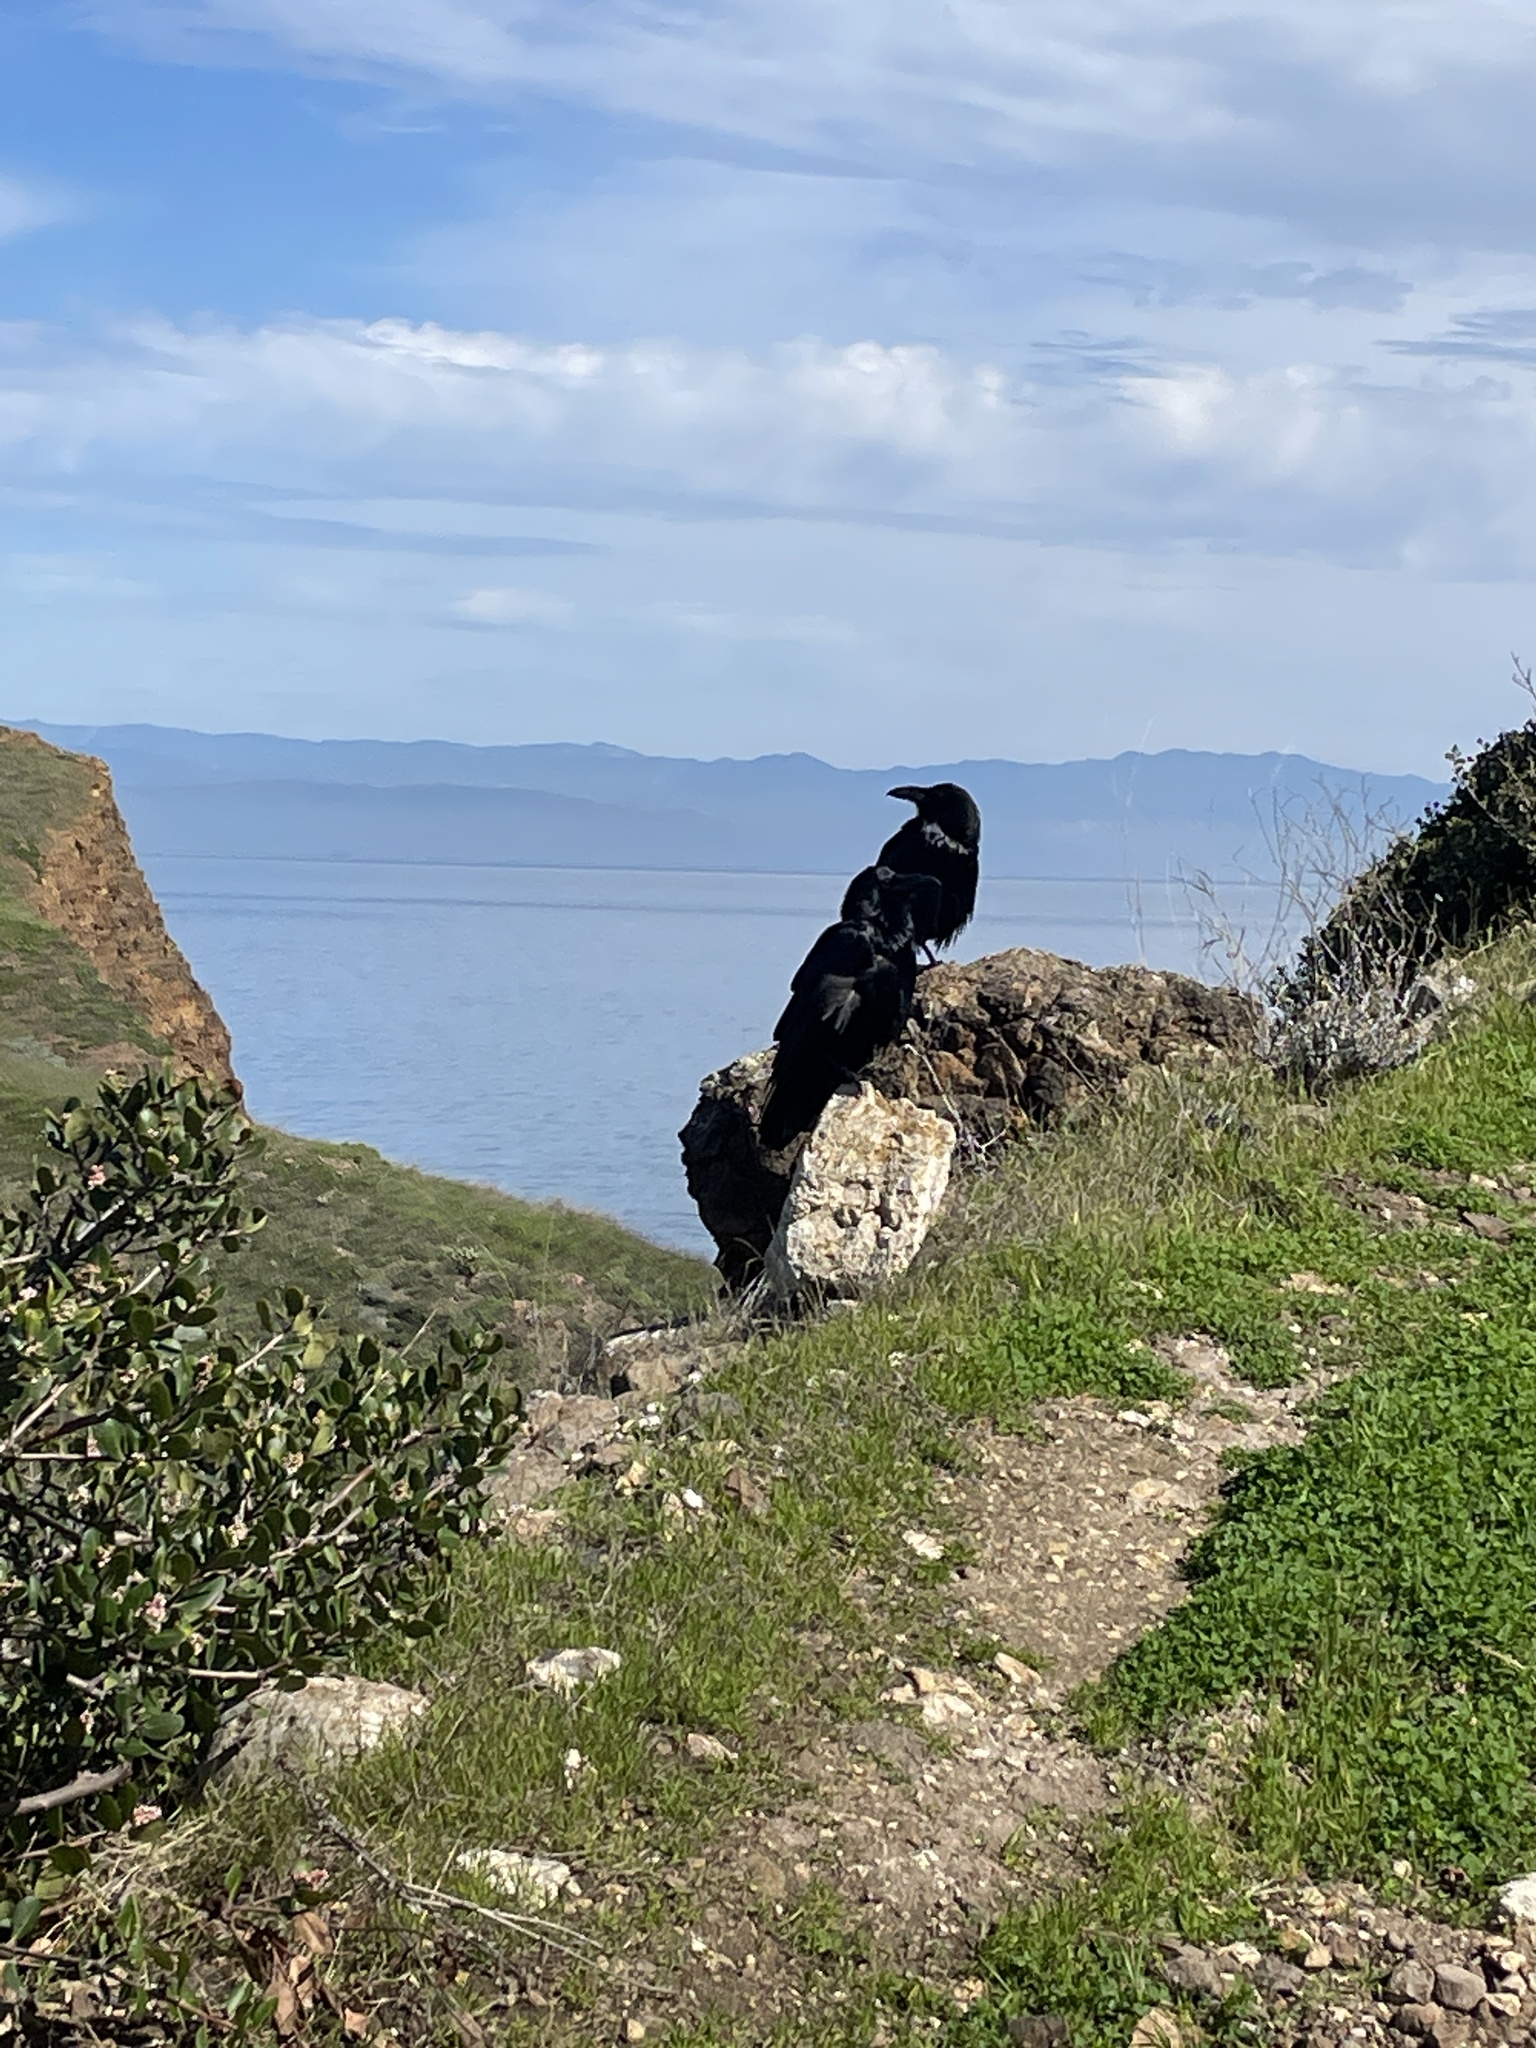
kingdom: Animalia
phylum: Chordata
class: Aves
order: Passeriformes
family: Corvidae
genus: Corvus
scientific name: Corvus corax
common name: Common raven
